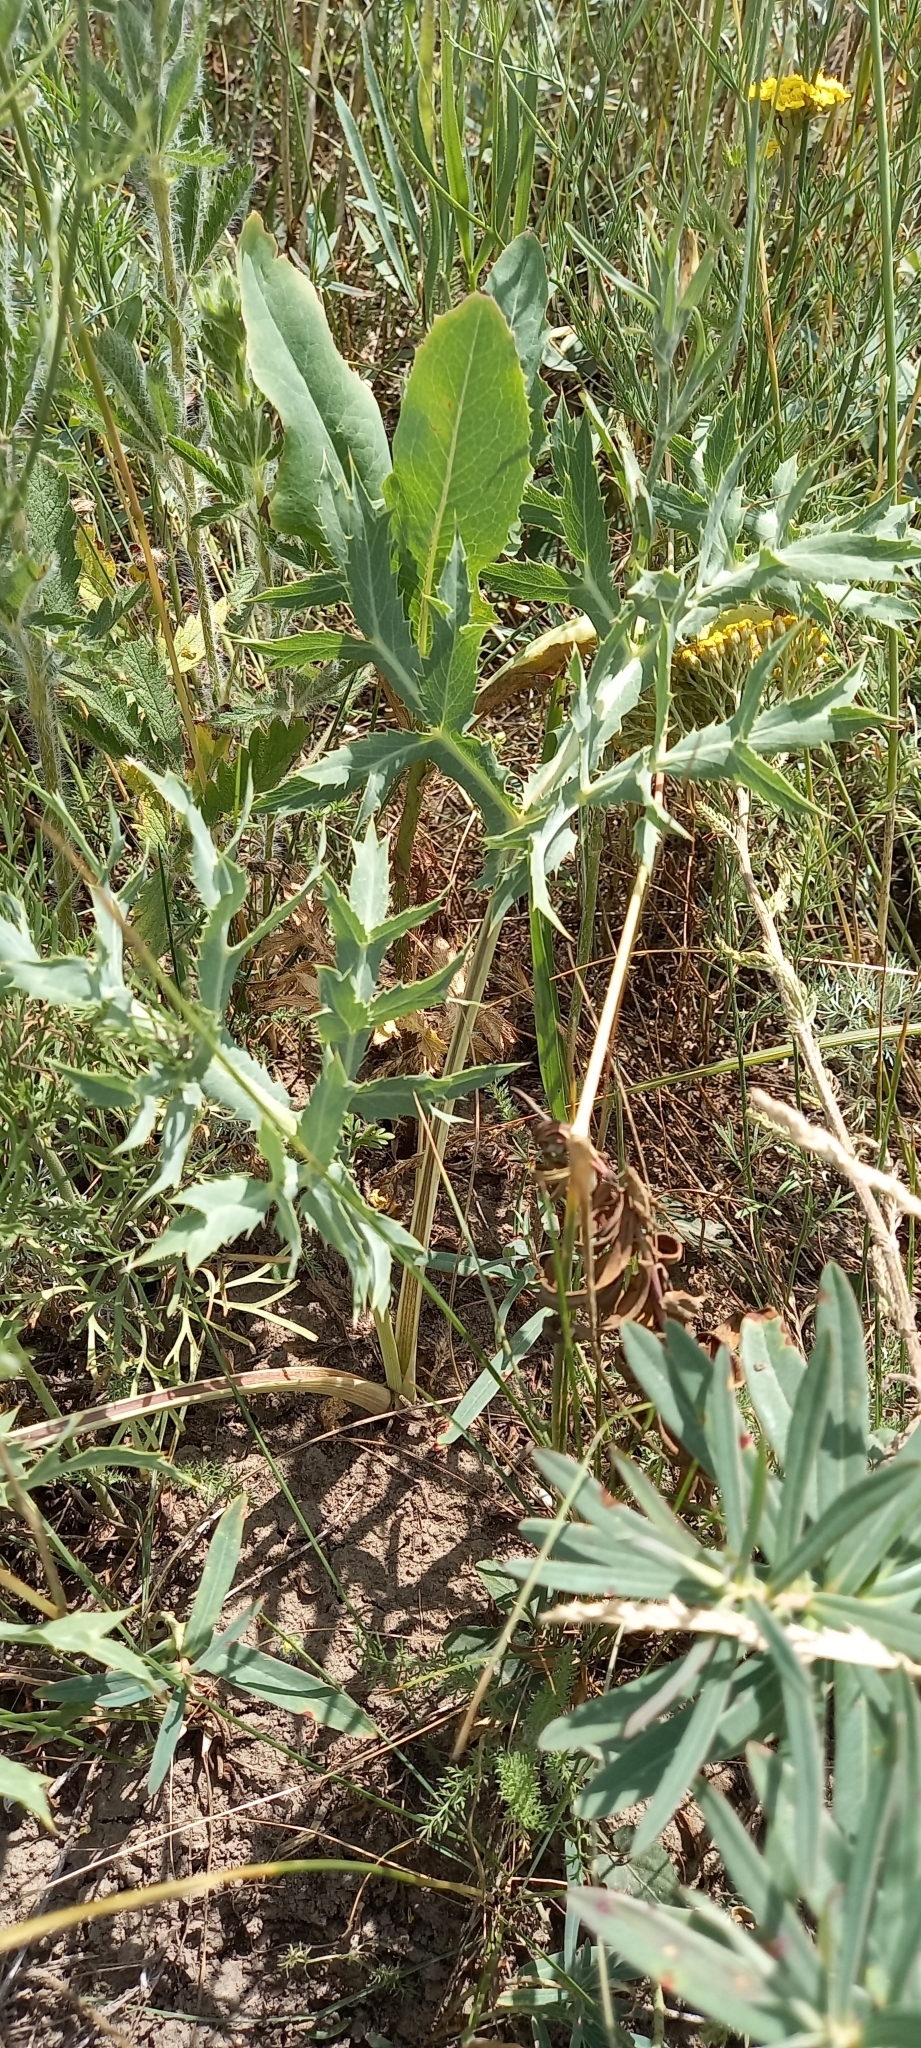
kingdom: Plantae
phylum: Tracheophyta
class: Magnoliopsida
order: Apiales
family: Apiaceae
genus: Eryngium
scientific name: Eryngium campestre
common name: Field eryngo
